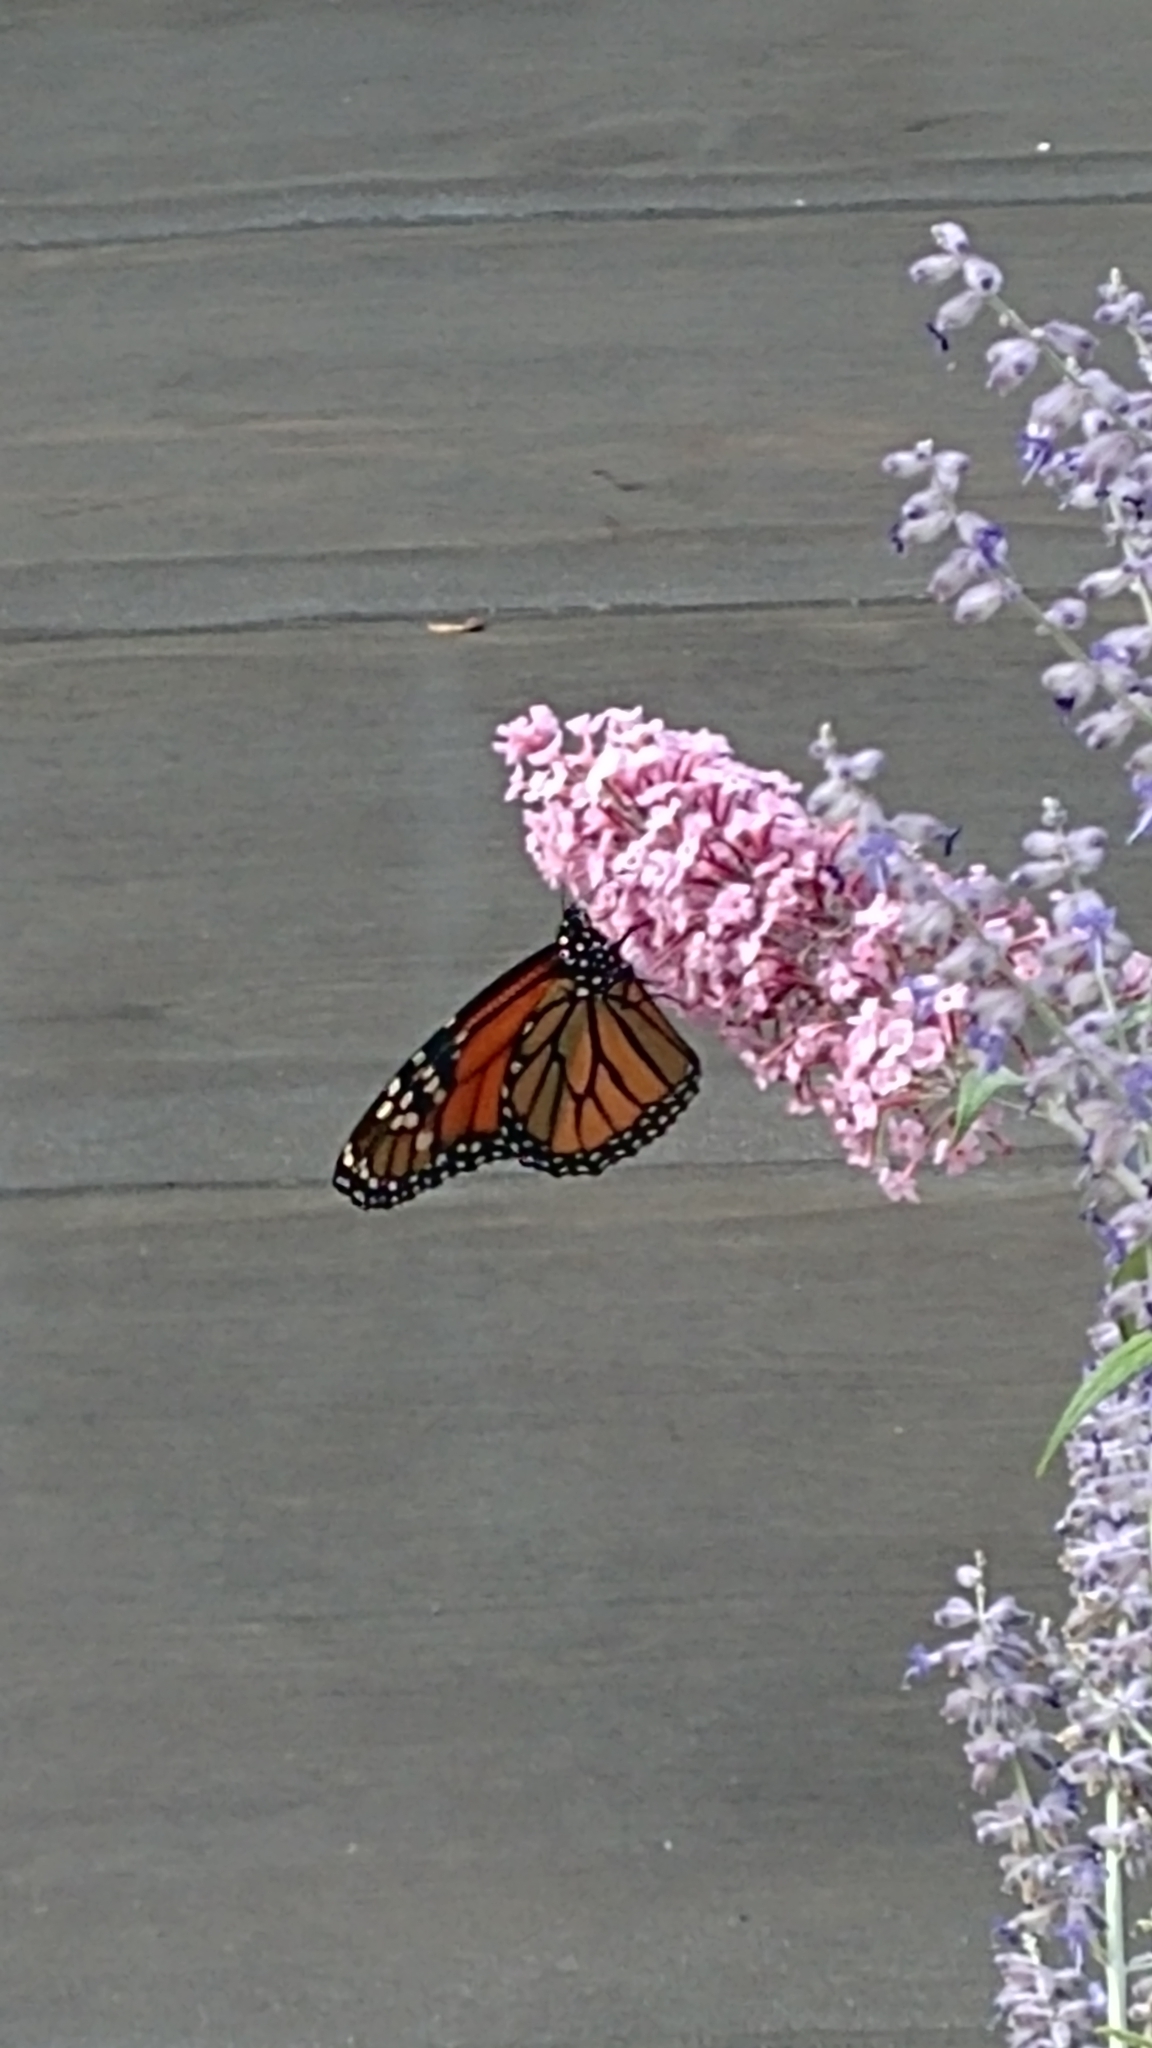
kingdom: Animalia
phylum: Arthropoda
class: Insecta
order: Lepidoptera
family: Nymphalidae
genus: Danaus
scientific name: Danaus plexippus
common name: Monarch
